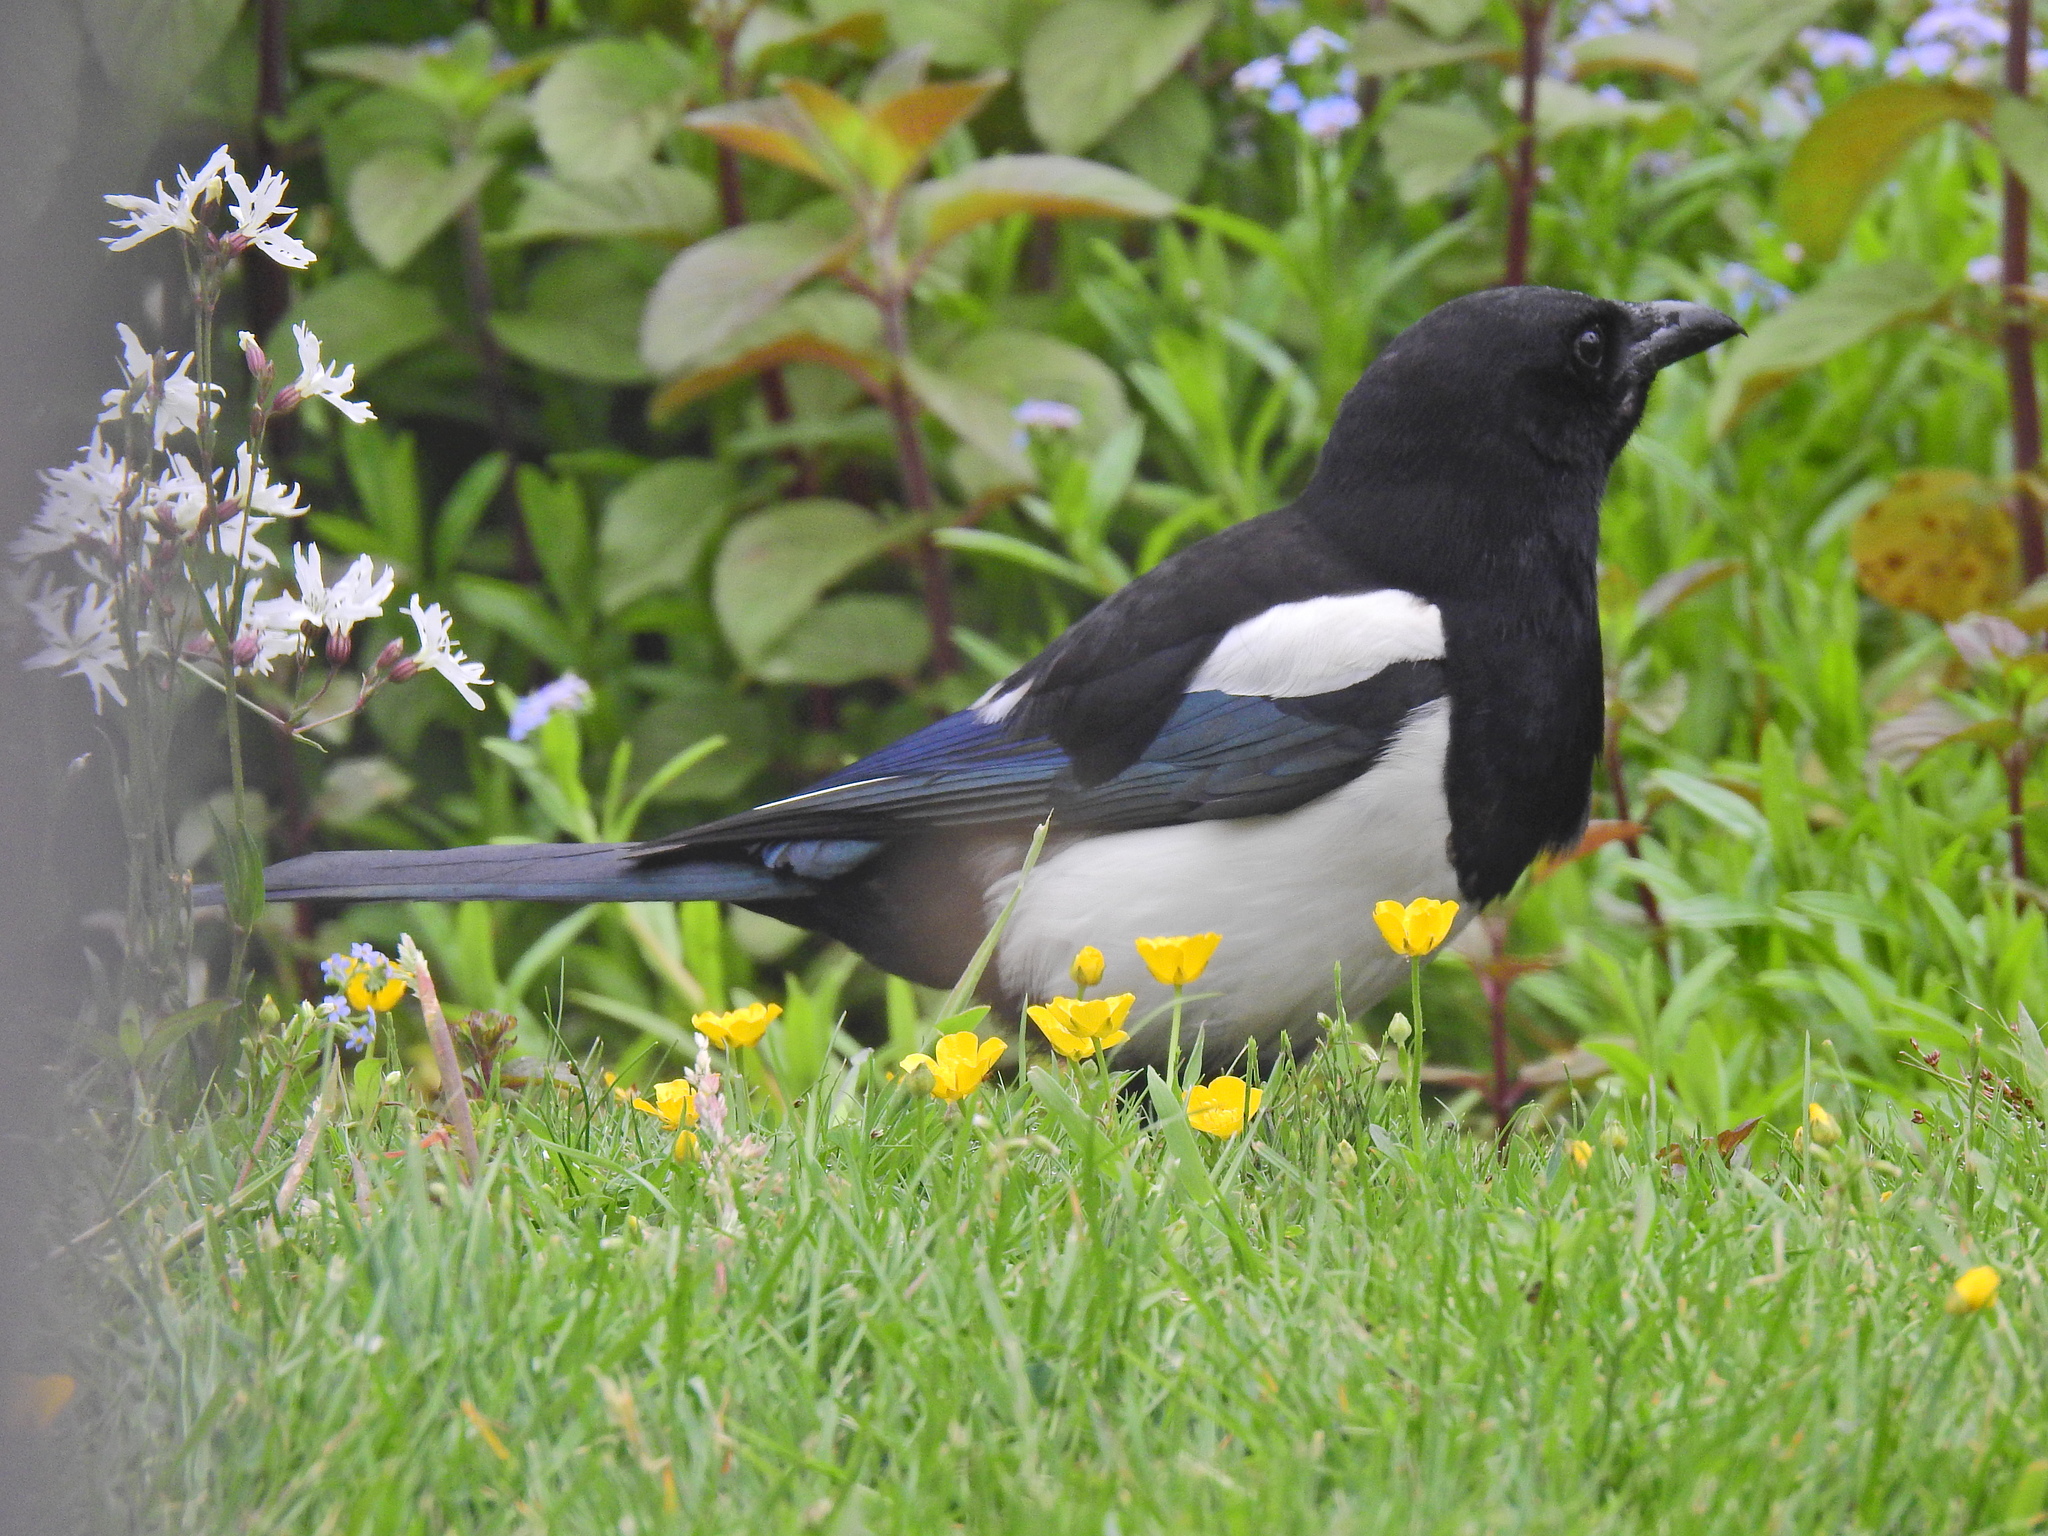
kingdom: Animalia
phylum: Chordata
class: Aves
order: Passeriformes
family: Corvidae
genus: Pica
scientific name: Pica pica
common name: Eurasian magpie
